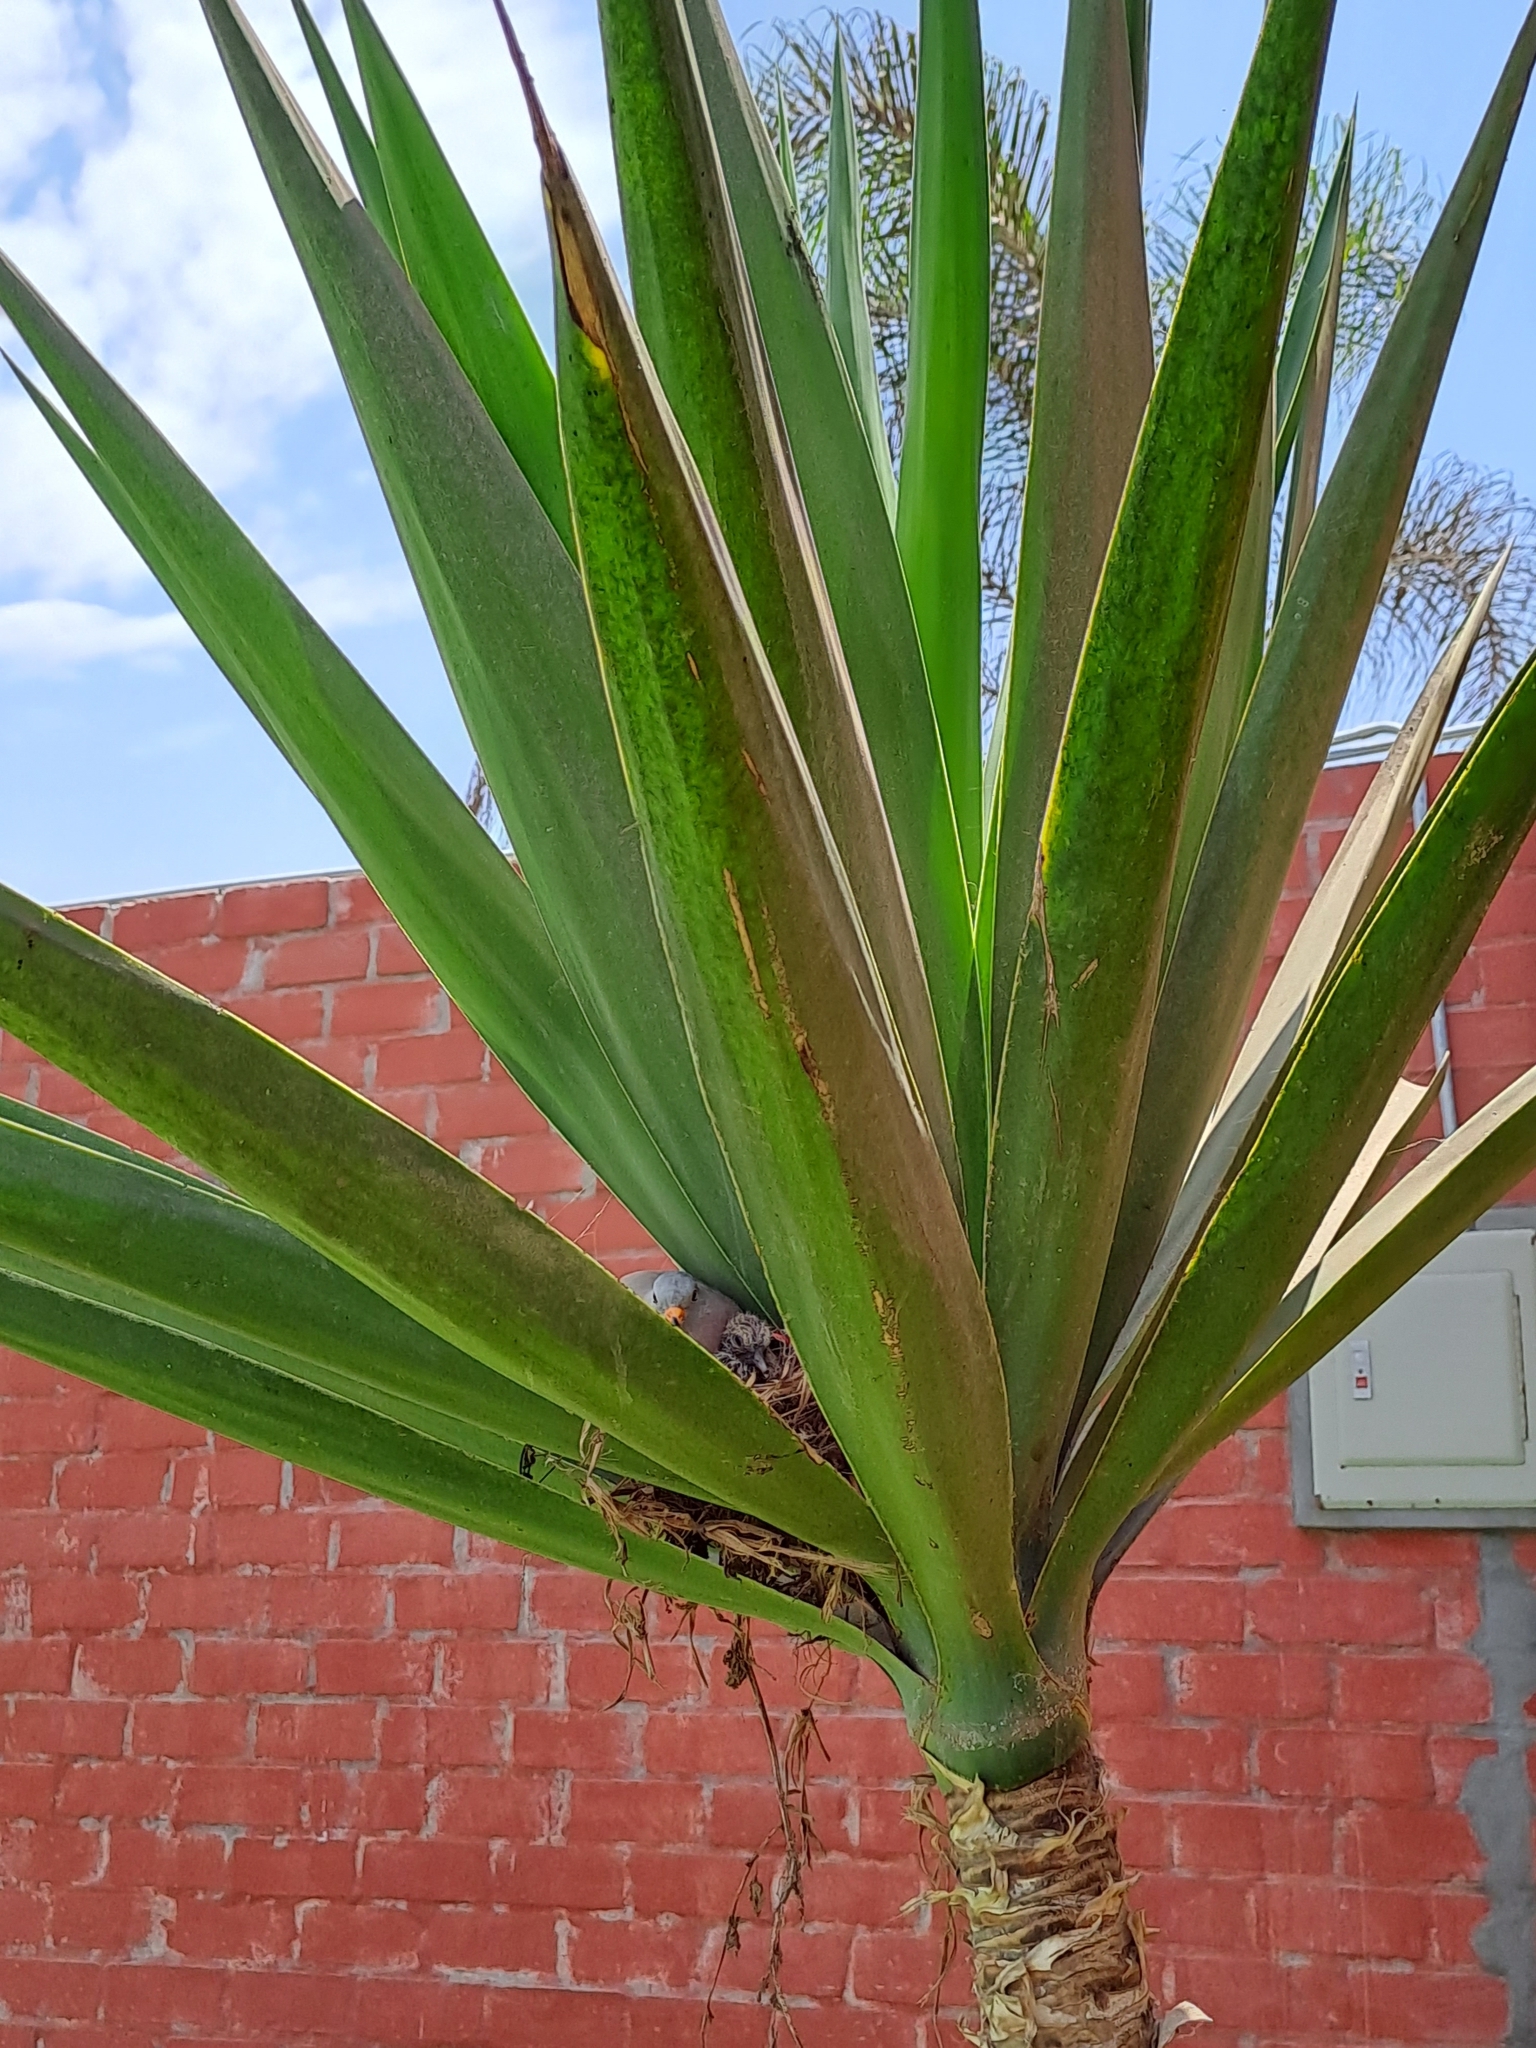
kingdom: Animalia
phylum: Chordata
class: Aves
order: Columbiformes
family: Columbidae
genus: Columbina
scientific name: Columbina cruziana
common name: Croaking ground dove
